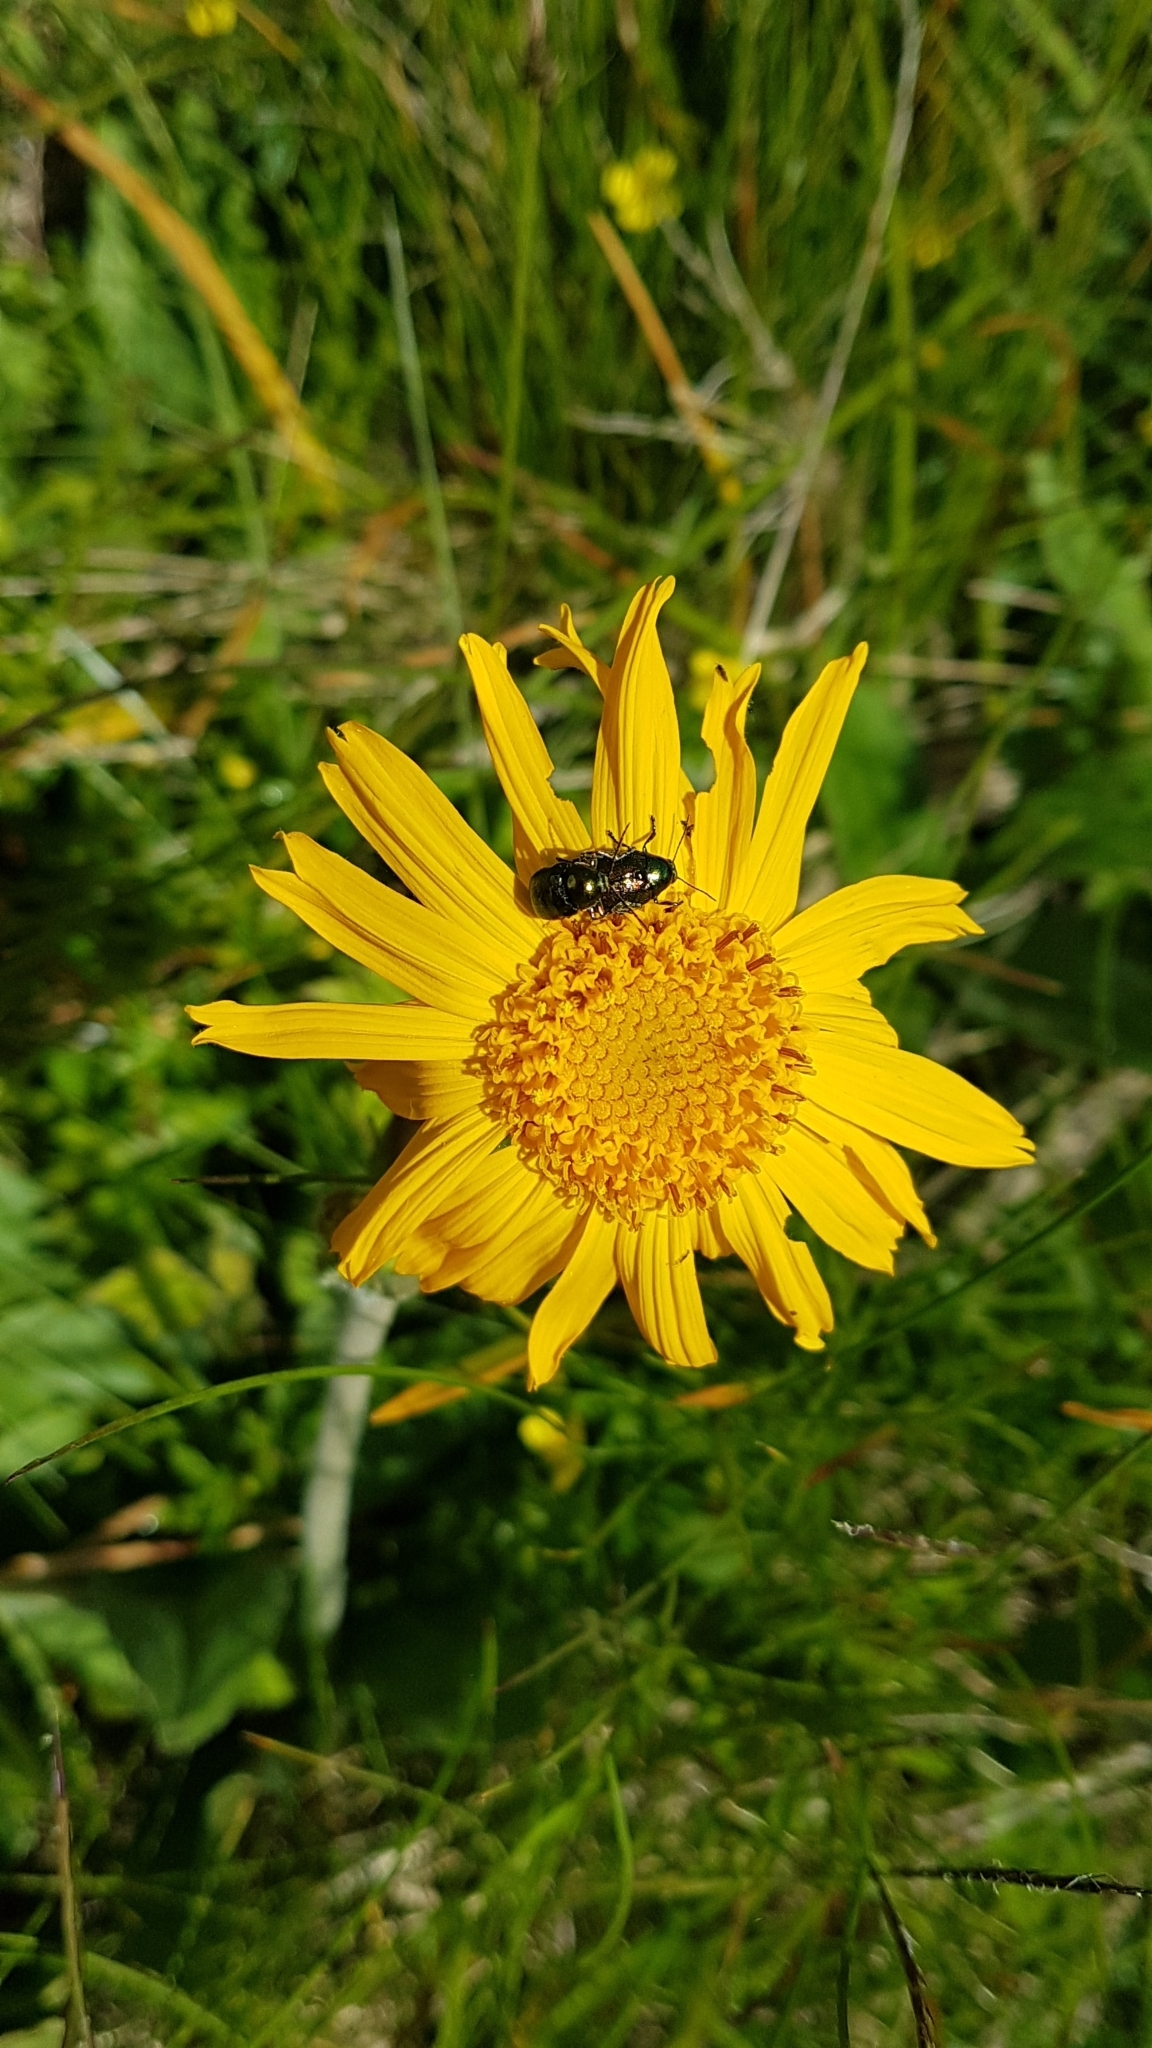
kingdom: Plantae
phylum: Tracheophyta
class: Magnoliopsida
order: Asterales
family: Asteraceae
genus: Arnica
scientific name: Arnica montana
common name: Leopard's bane
